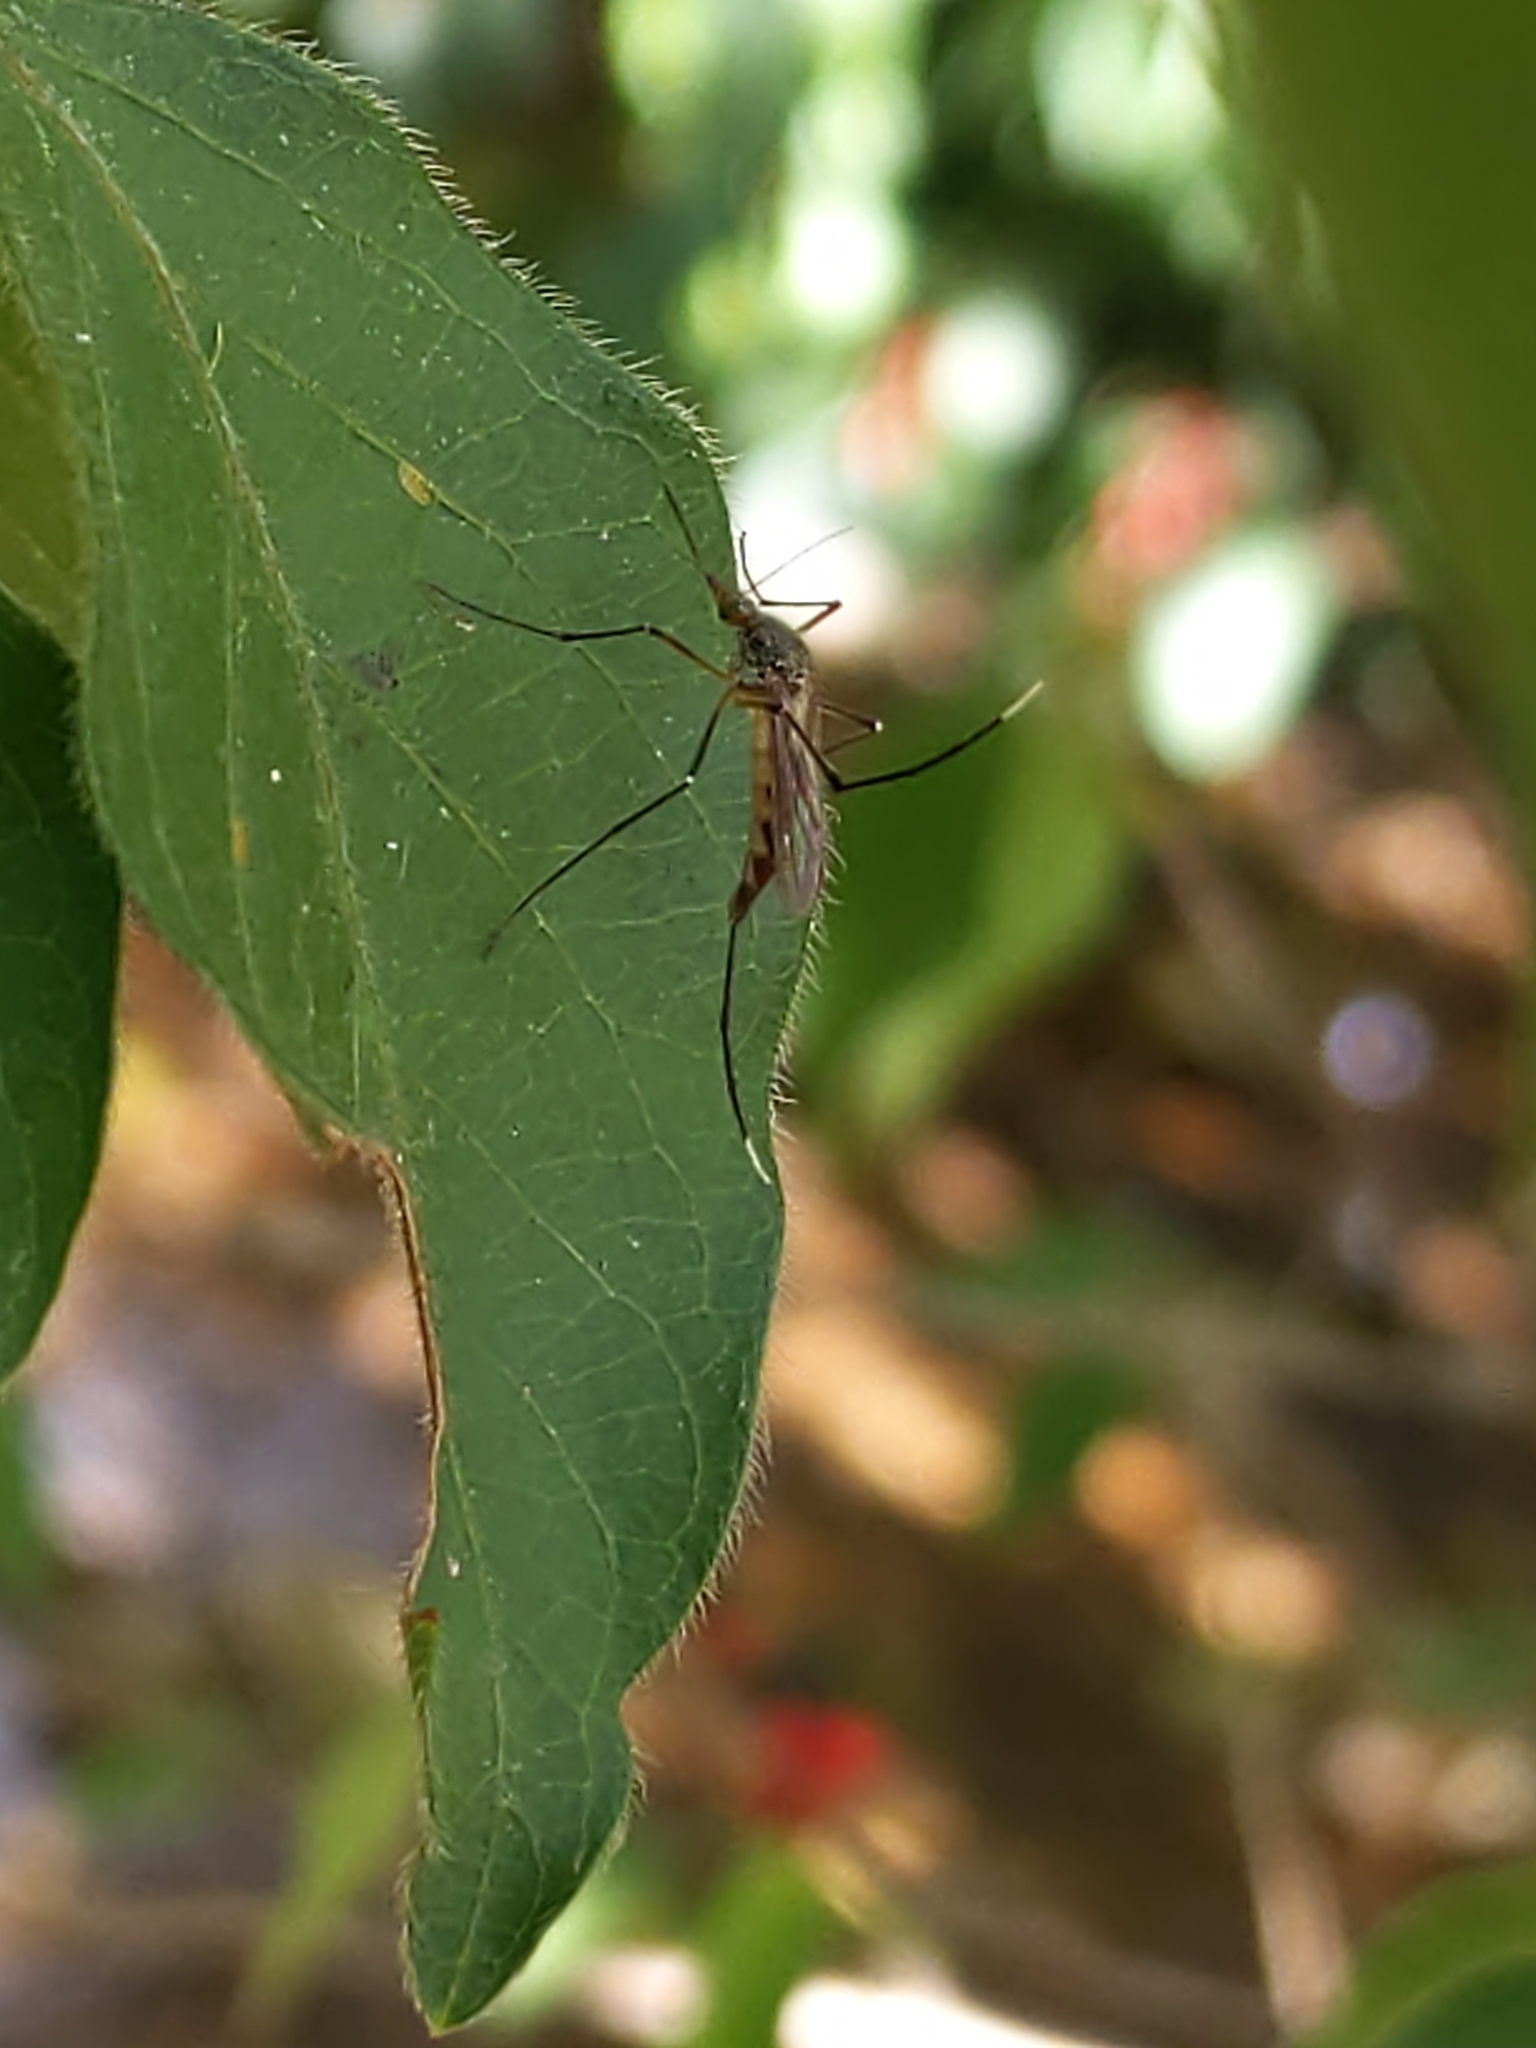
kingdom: Animalia
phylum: Arthropoda
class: Insecta
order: Diptera
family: Culicidae
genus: Psorophora
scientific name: Psorophora ferox
